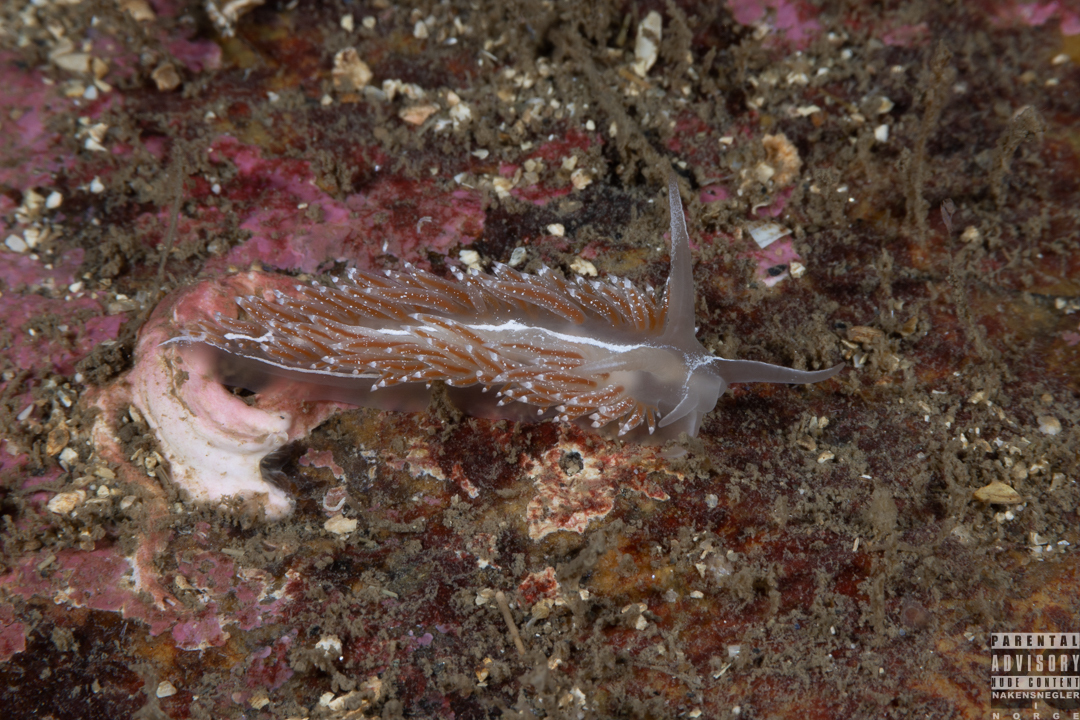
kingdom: Animalia
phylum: Mollusca
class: Gastropoda
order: Nudibranchia
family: Coryphellidae
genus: Coryphella
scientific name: Coryphella monicae
